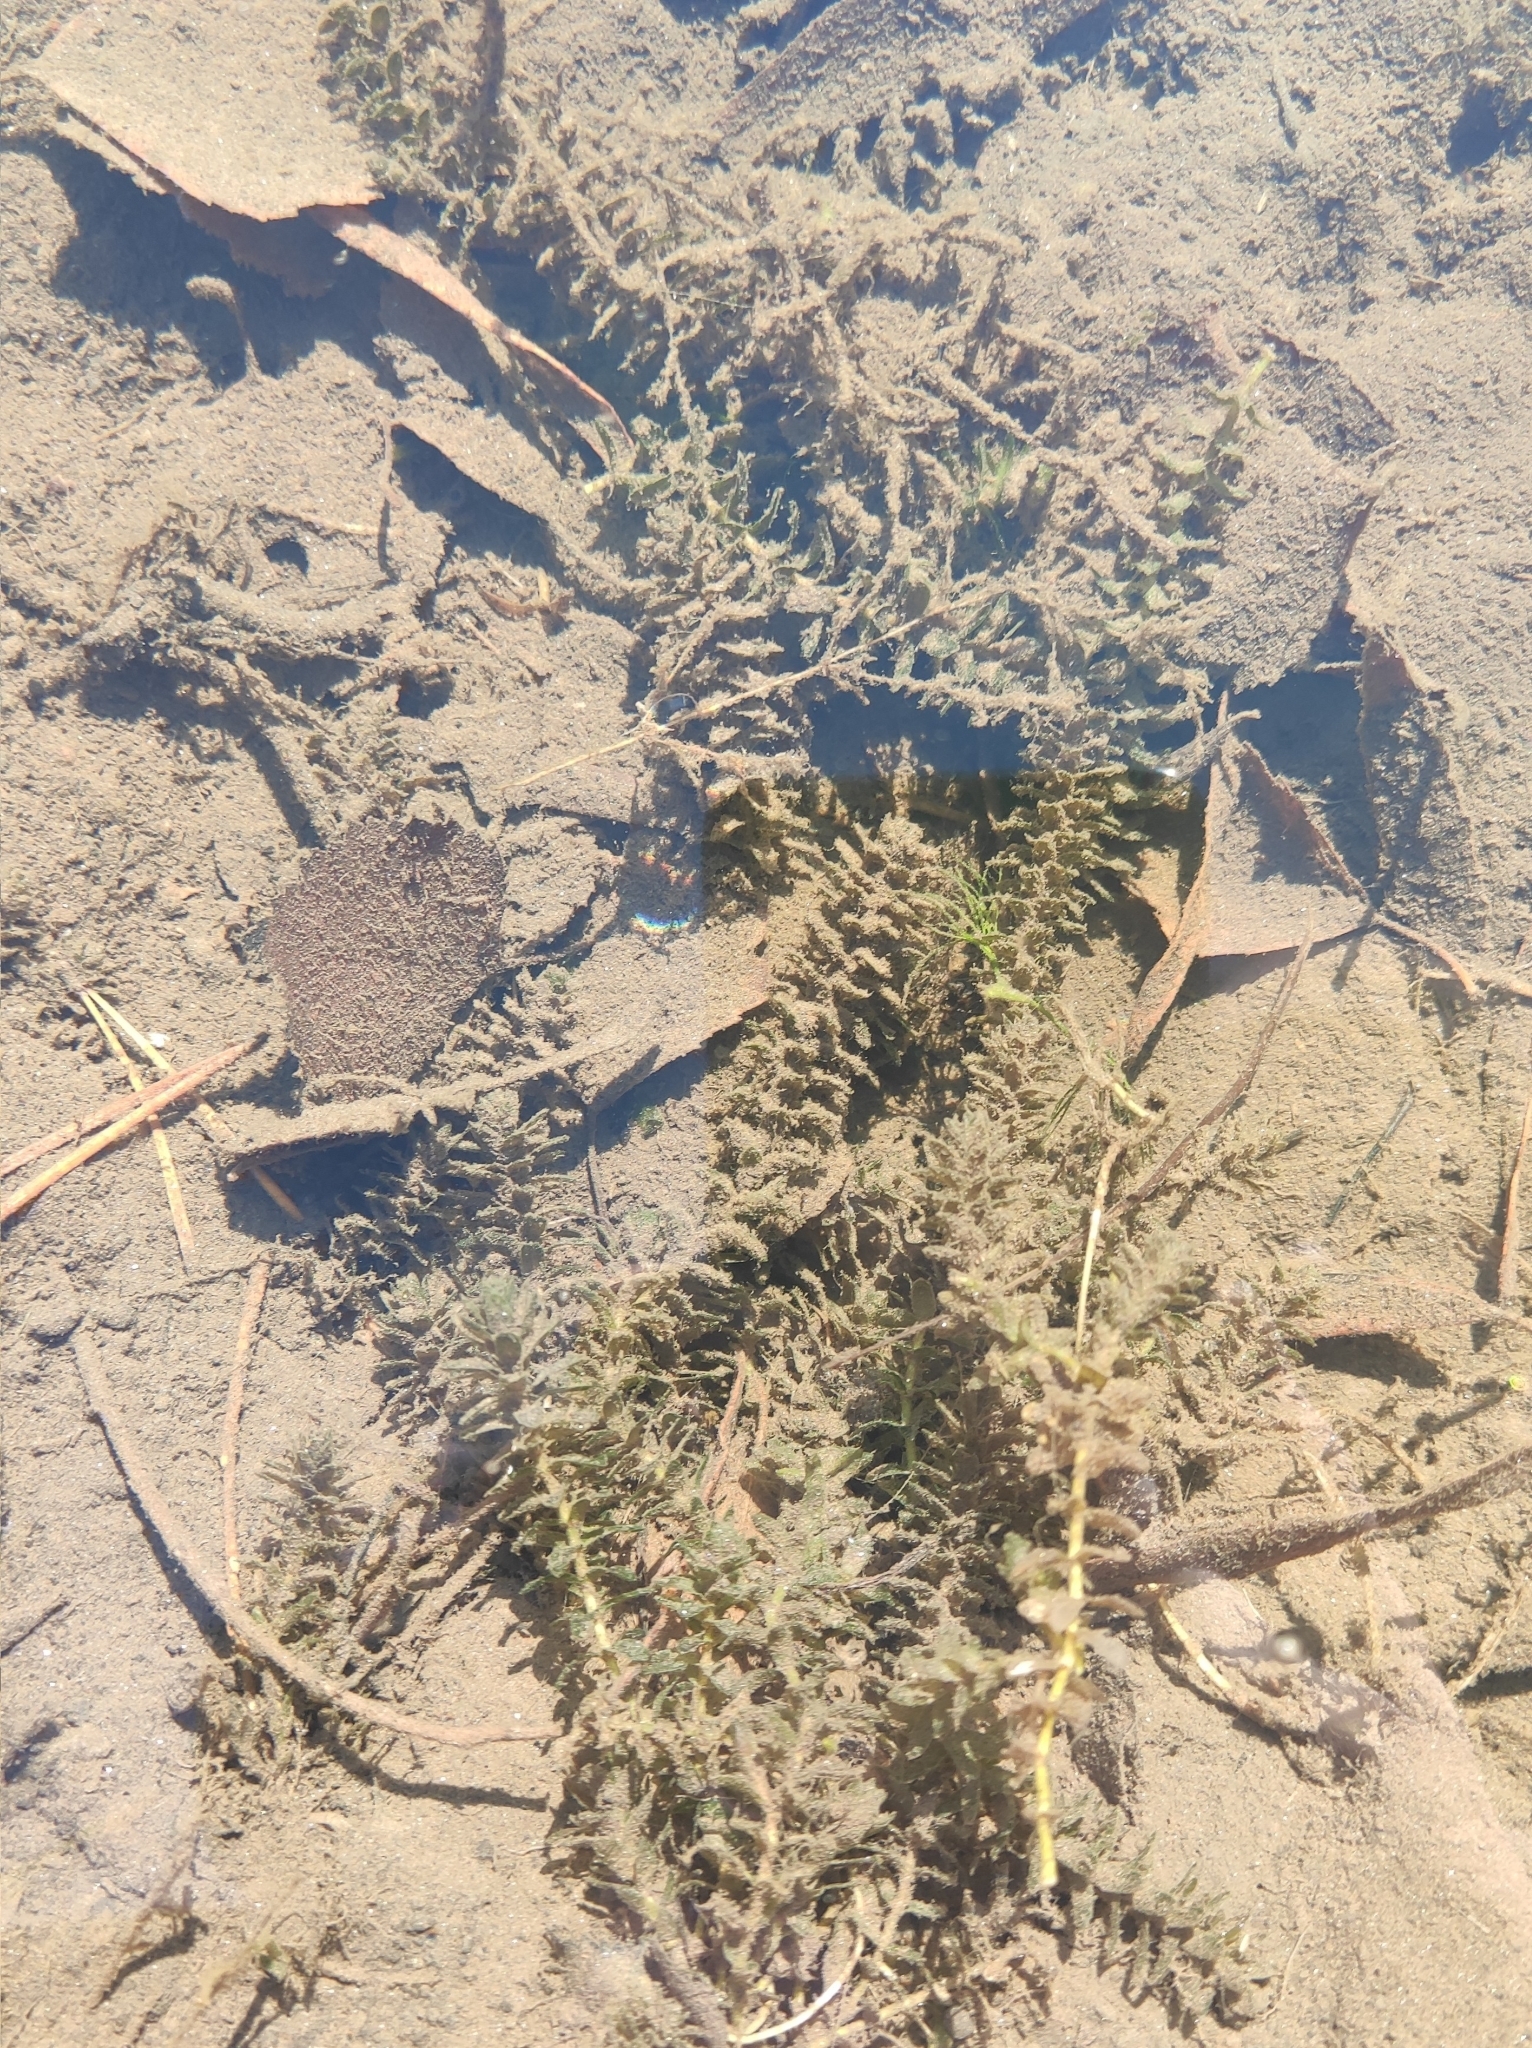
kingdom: Plantae
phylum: Tracheophyta
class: Liliopsida
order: Alismatales
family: Hydrocharitaceae
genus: Elodea
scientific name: Elodea canadensis
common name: Canadian waterweed
